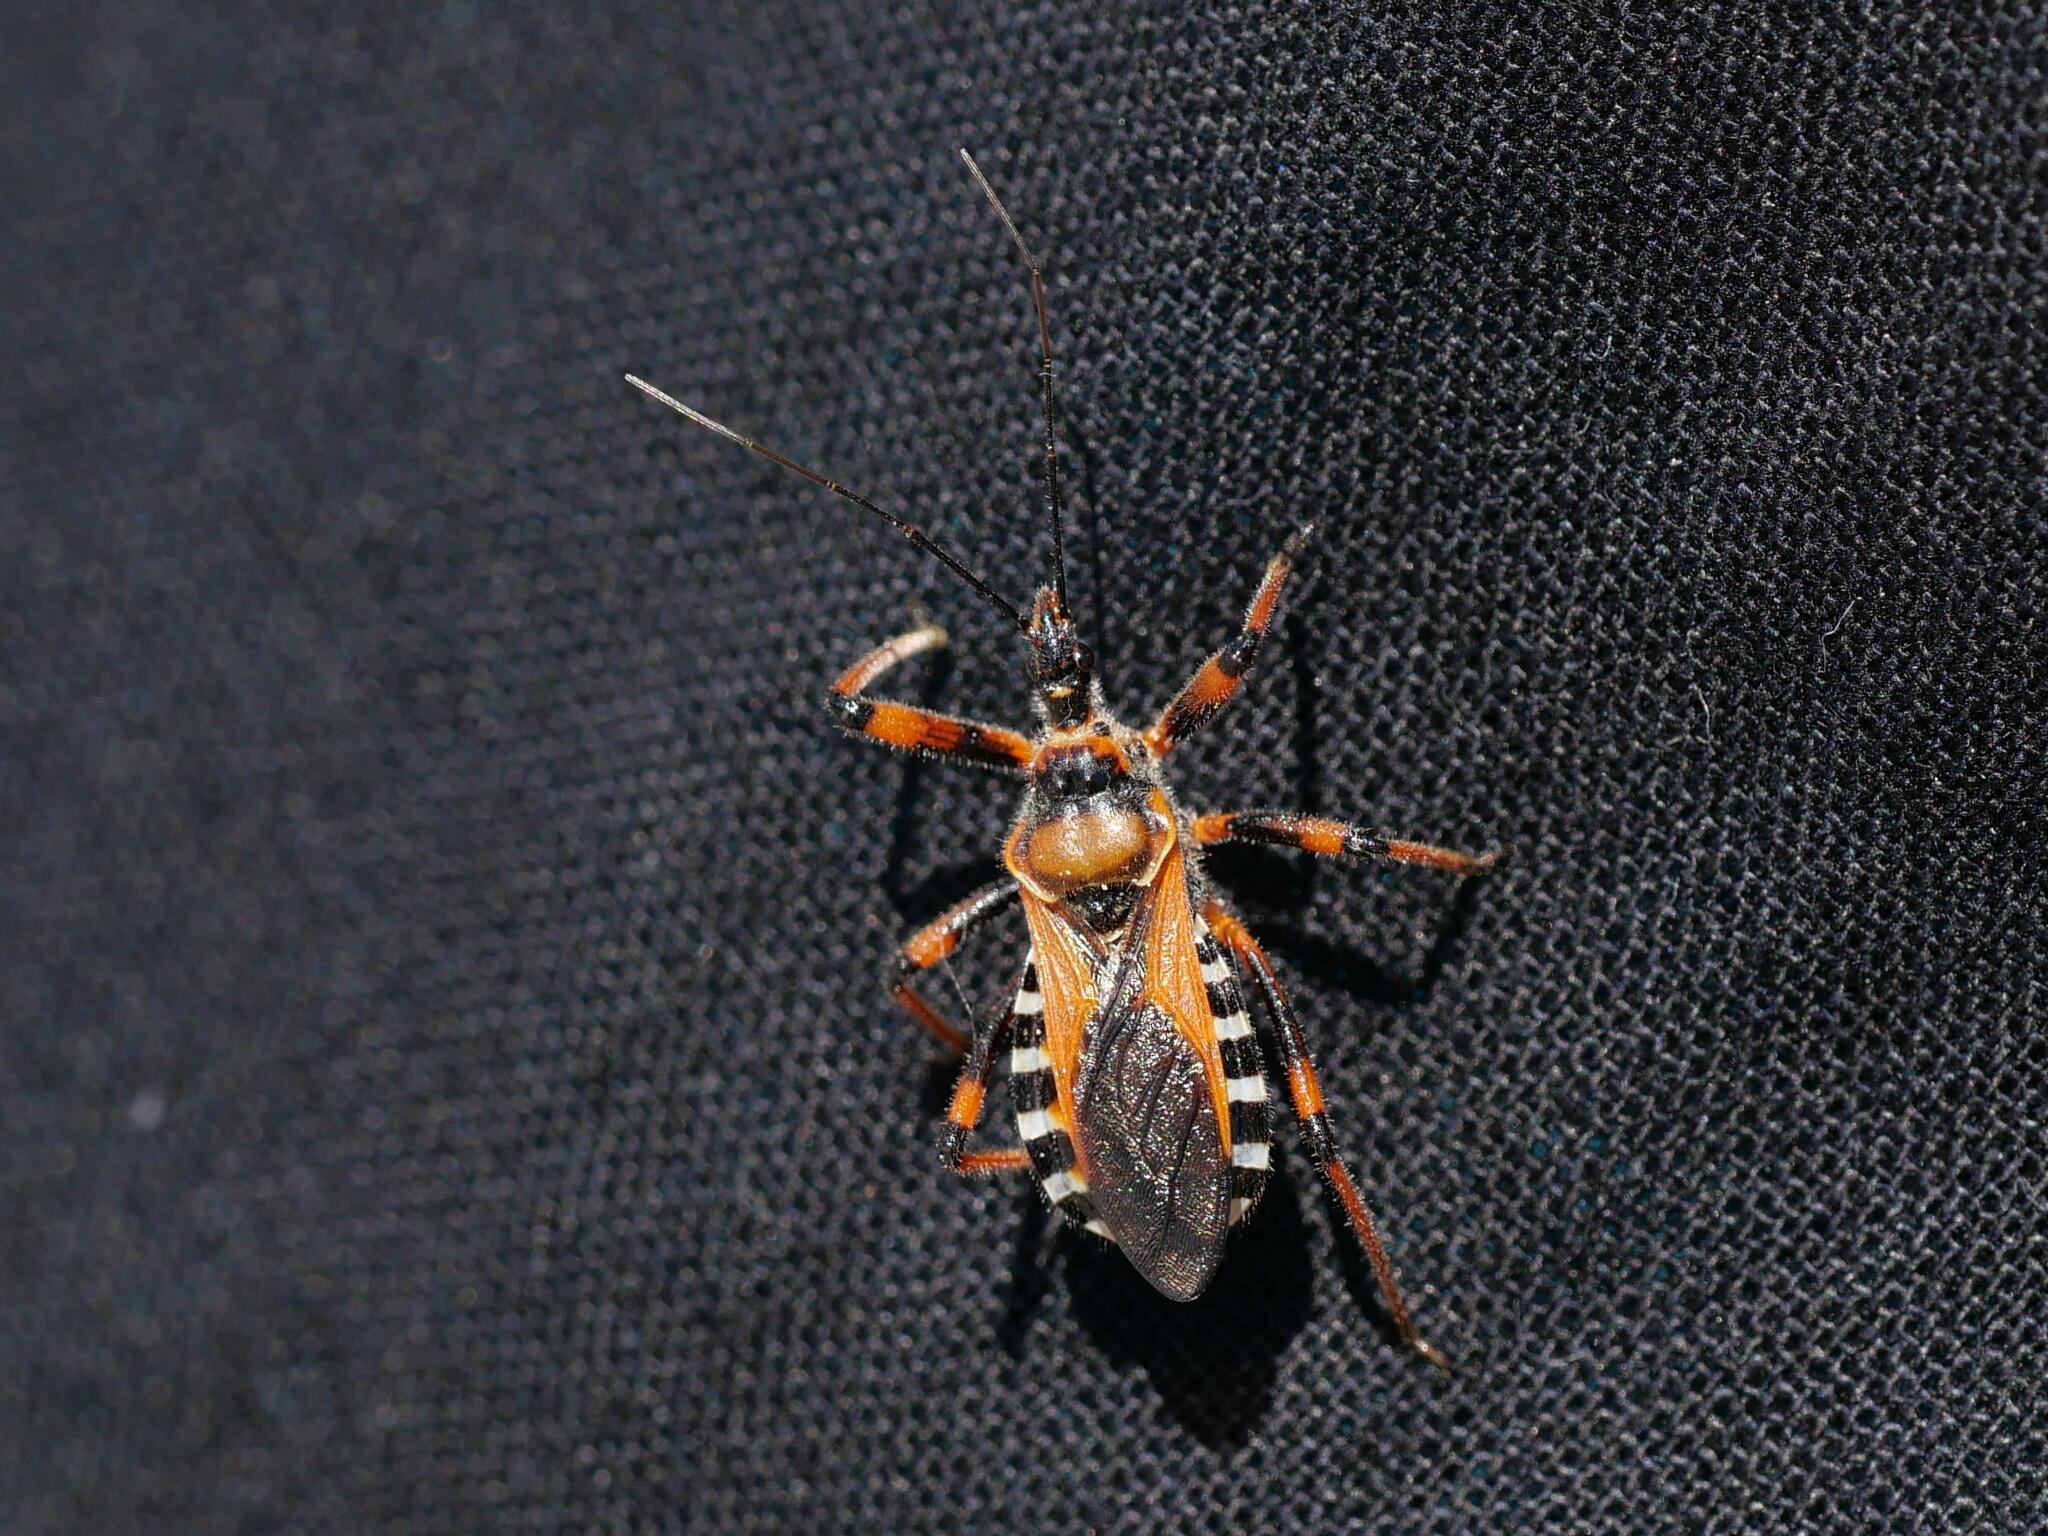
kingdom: Animalia
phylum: Arthropoda
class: Insecta
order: Hemiptera
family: Reduviidae
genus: Rhynocoris
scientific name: Rhynocoris iracundus
